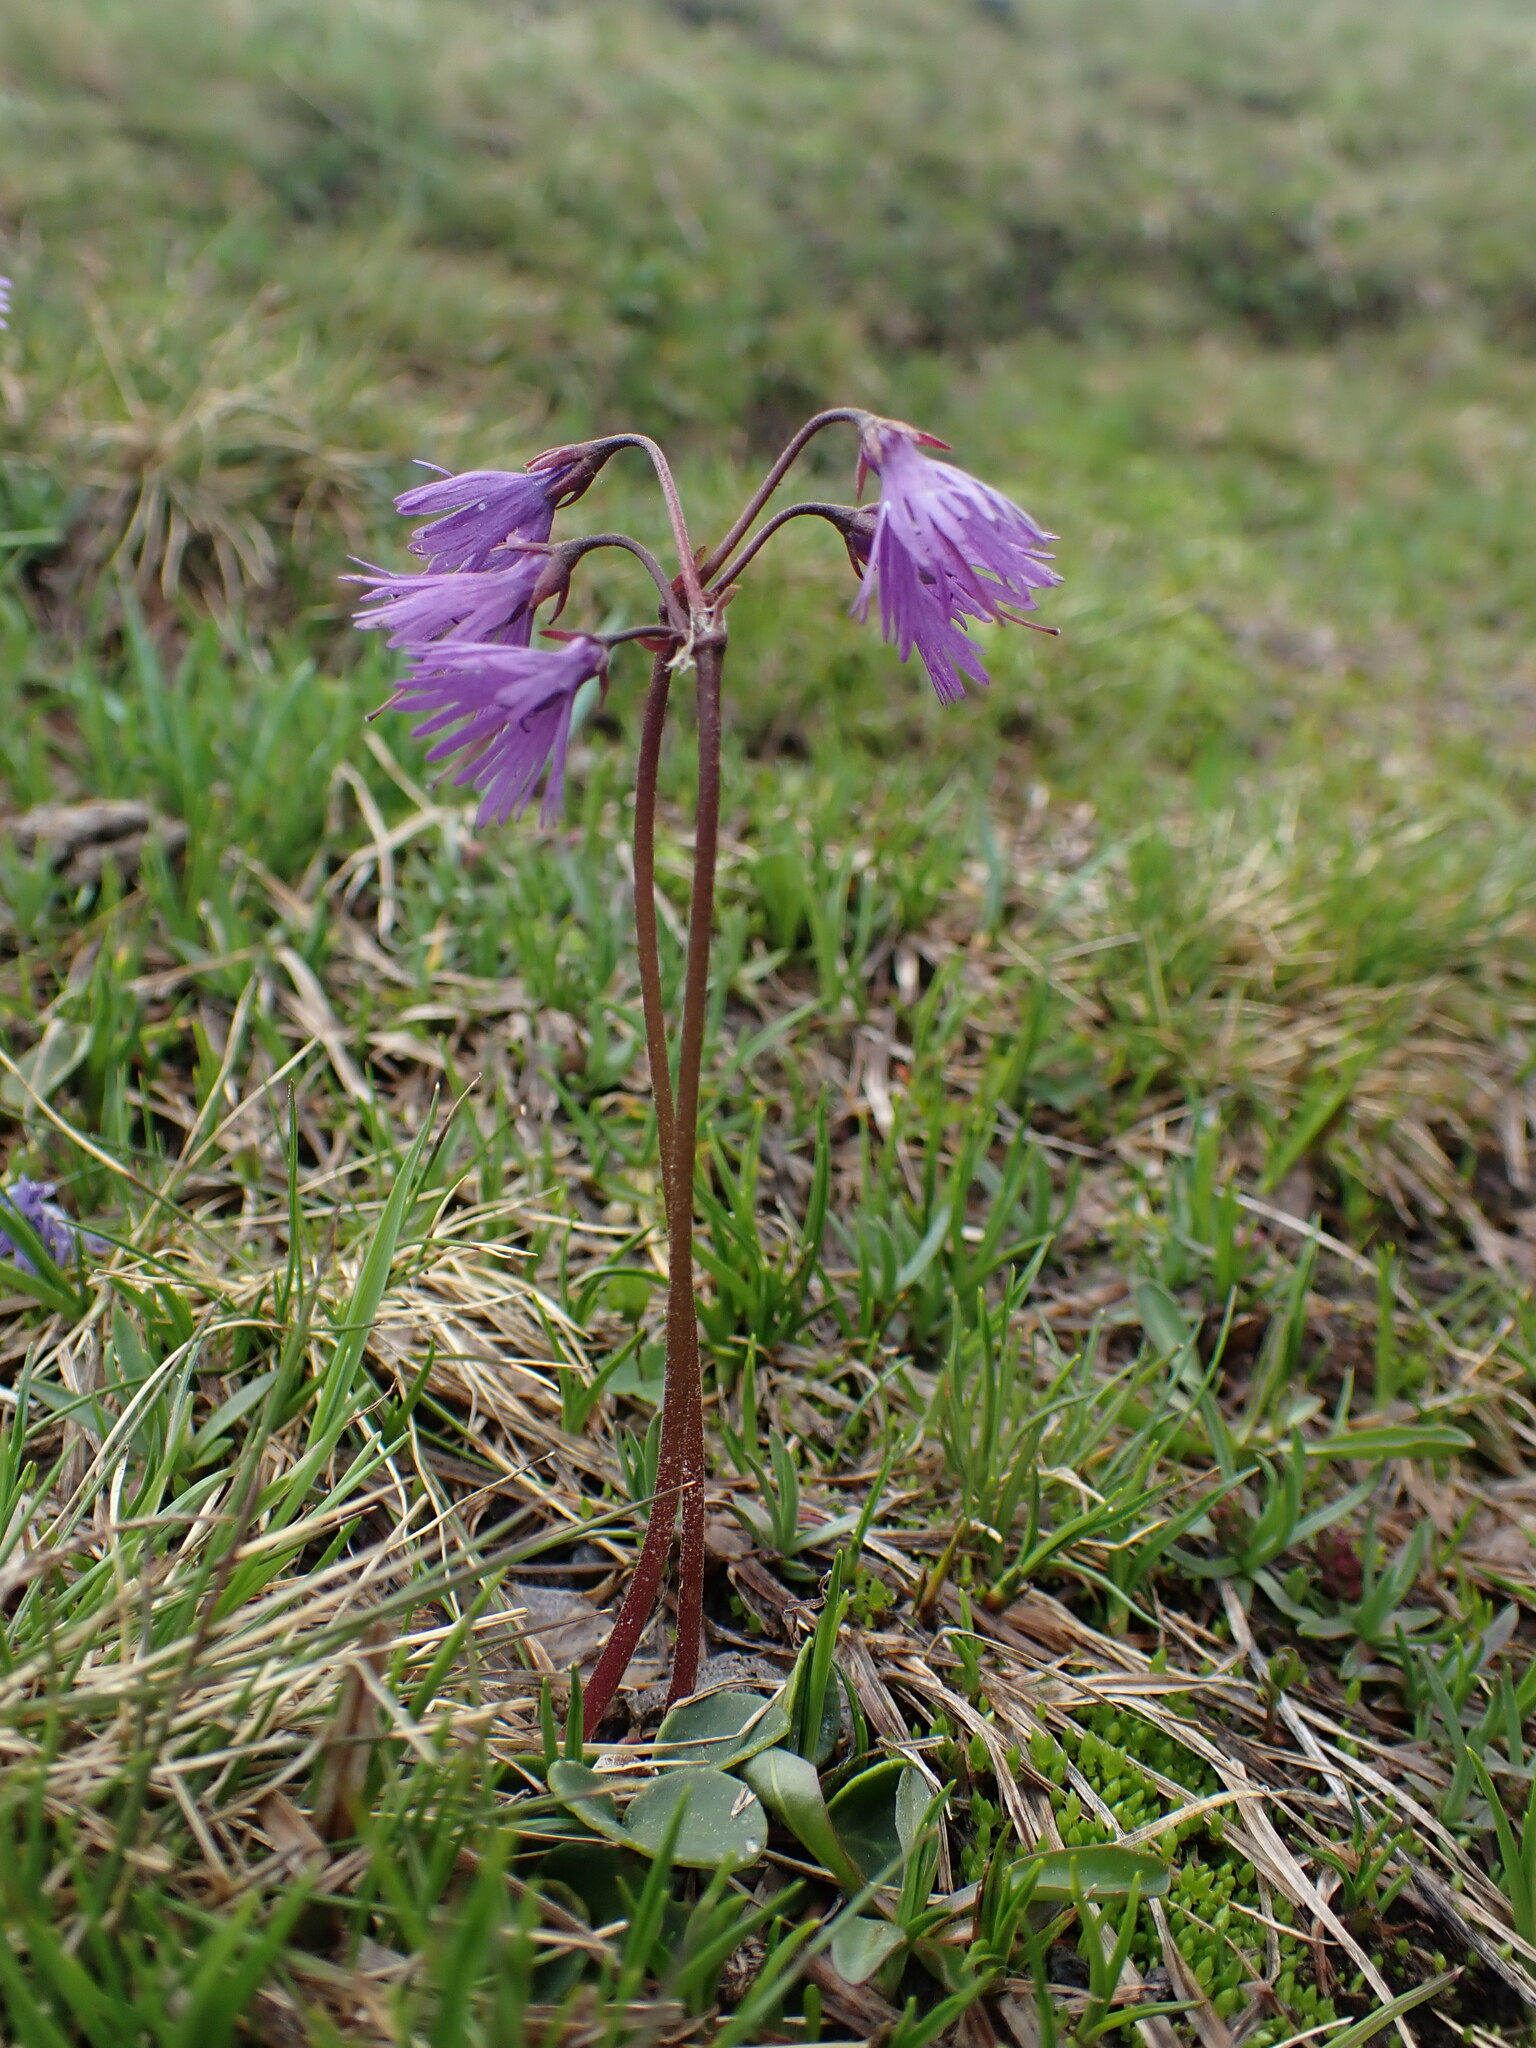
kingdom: Plantae
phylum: Tracheophyta
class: Magnoliopsida
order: Ericales
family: Primulaceae
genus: Soldanella
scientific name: Soldanella alpina
